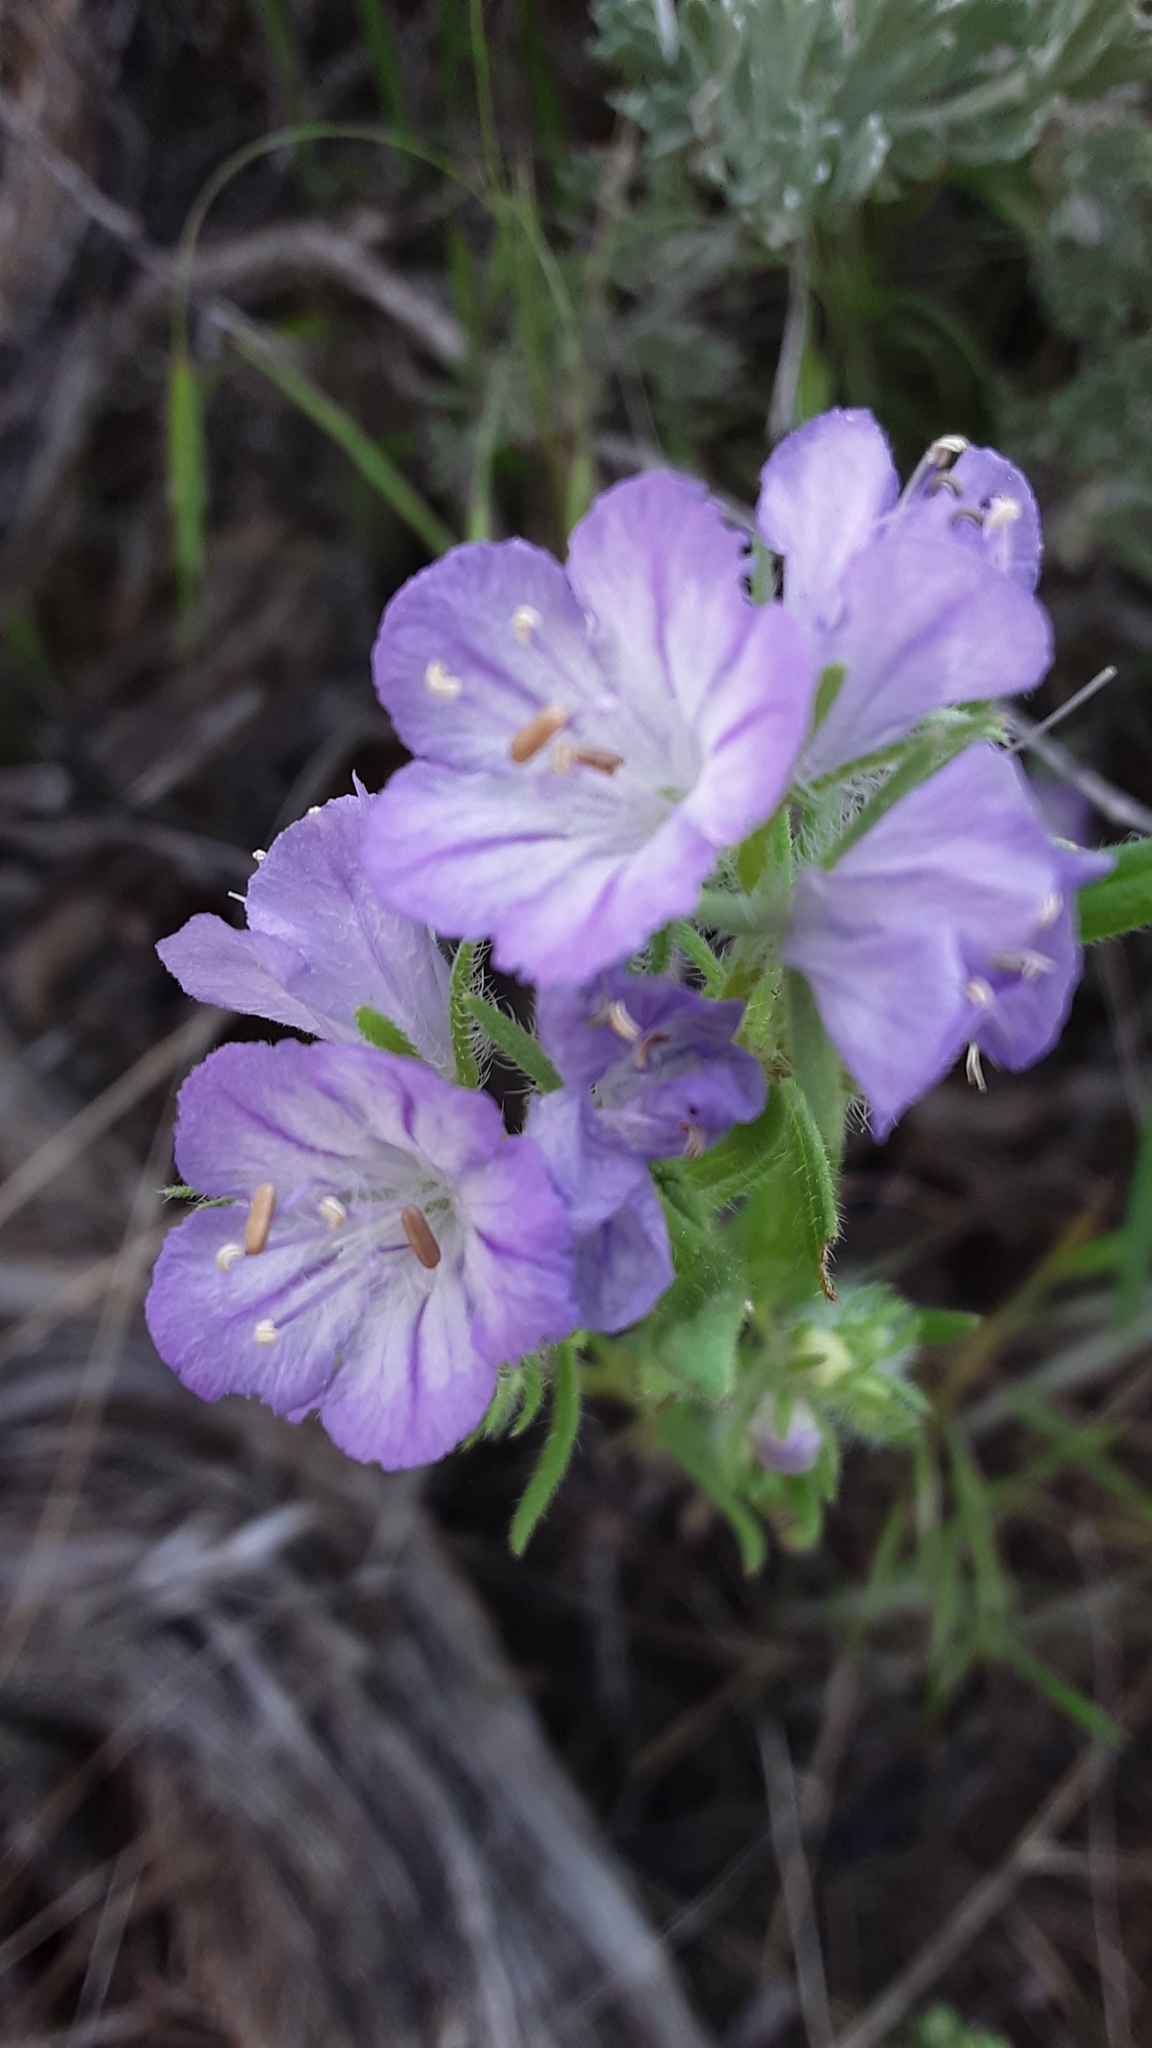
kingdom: Plantae
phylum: Tracheophyta
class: Magnoliopsida
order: Boraginales
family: Hydrophyllaceae
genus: Phacelia
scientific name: Phacelia linearis
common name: Linear-leaved phacelia
